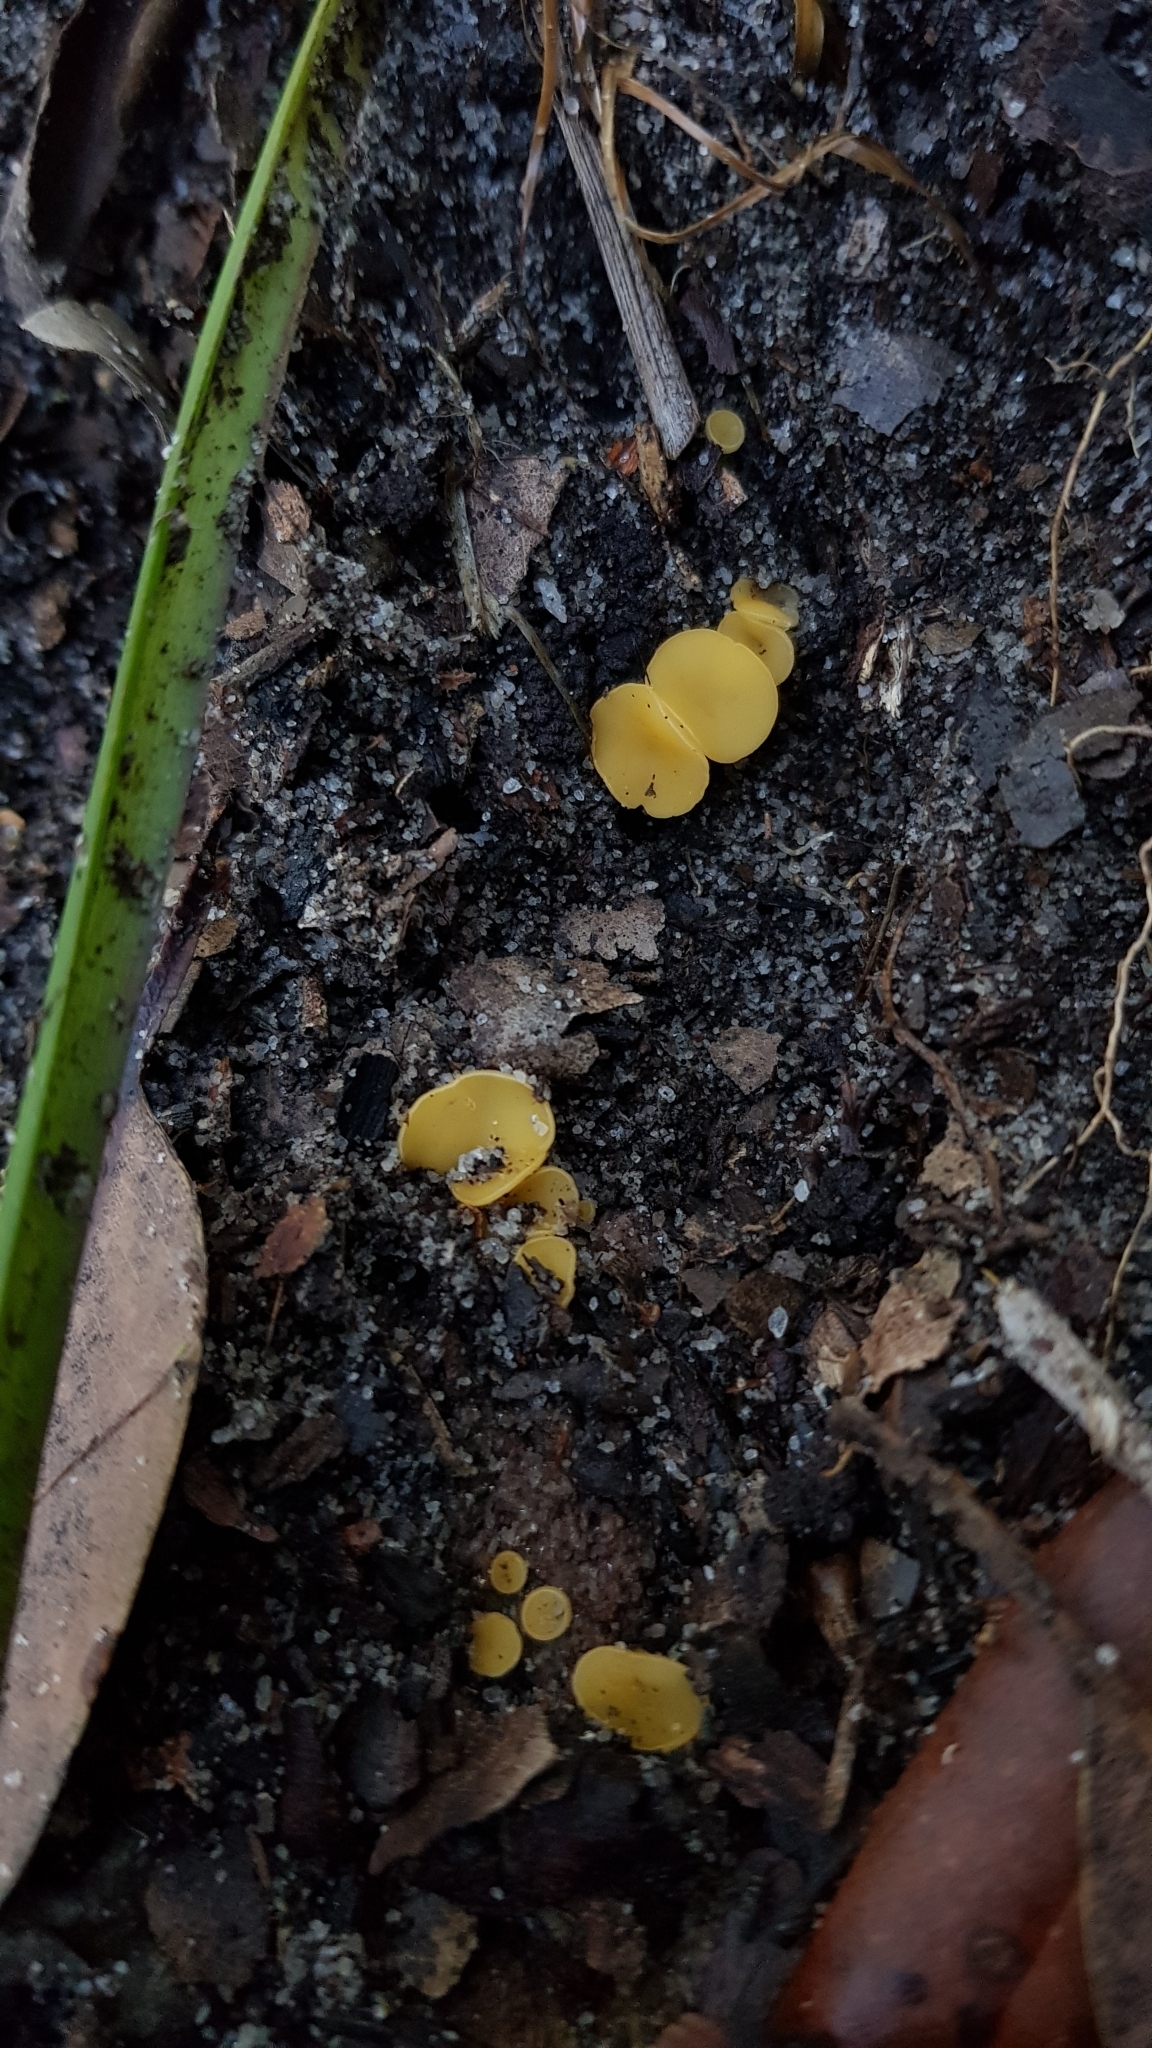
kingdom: Fungi
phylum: Ascomycota
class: Leotiomycetes
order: Helotiales
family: Helotiaceae
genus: Phaeohelotium
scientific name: Phaeohelotium baileyanum
